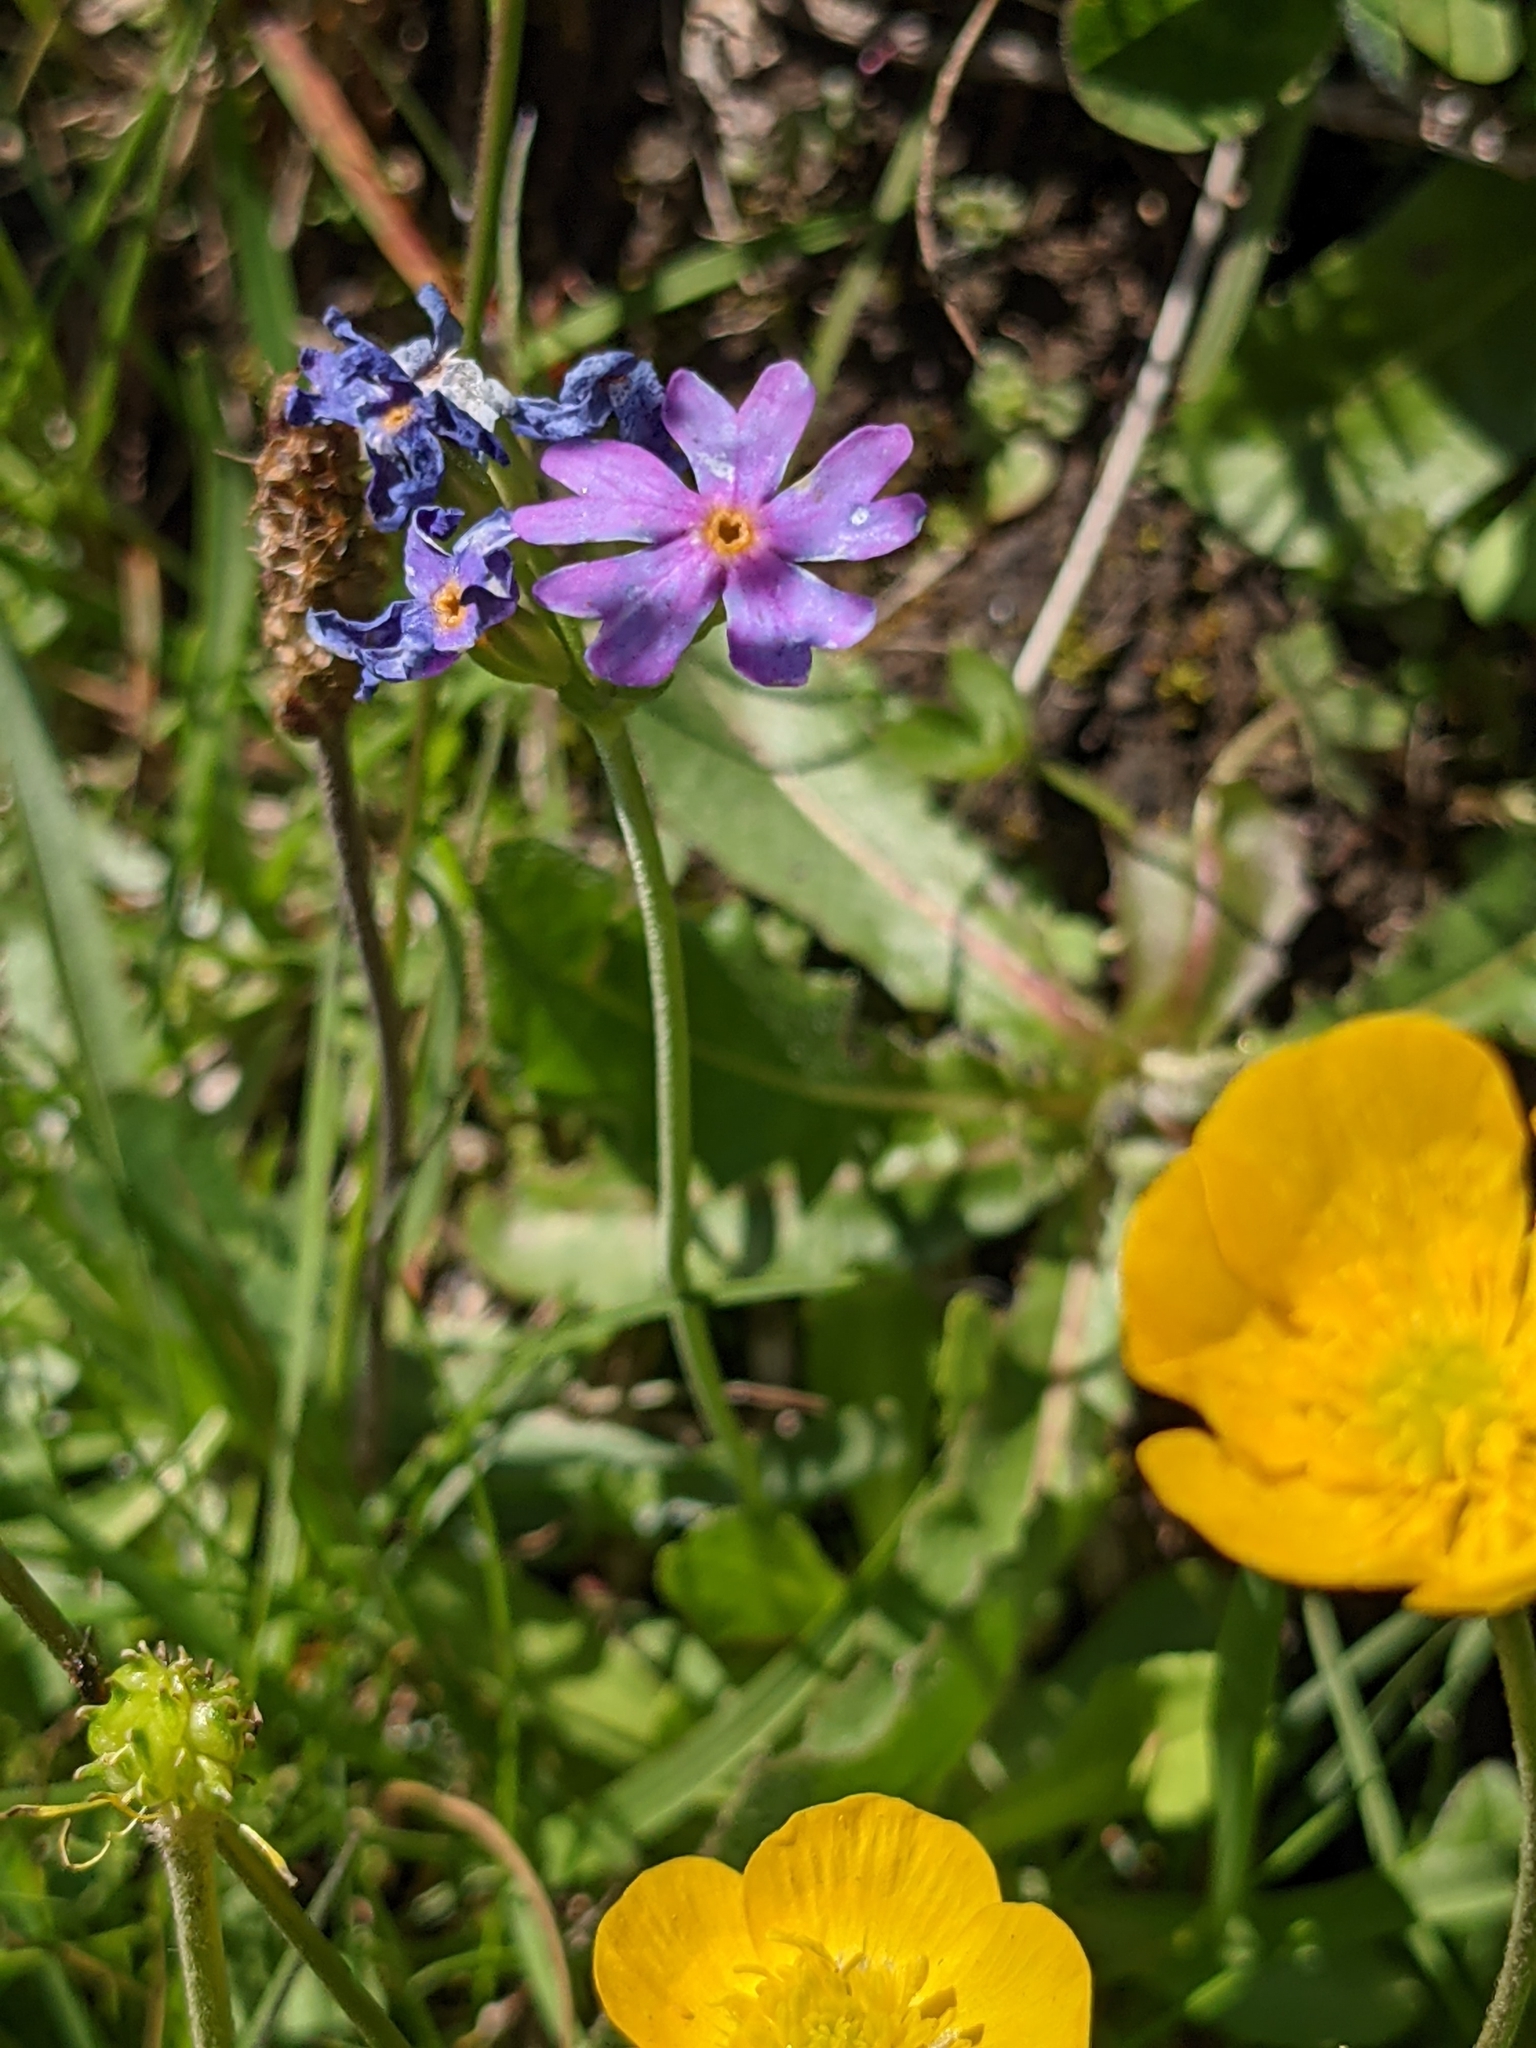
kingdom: Plantae
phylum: Tracheophyta
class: Magnoliopsida
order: Ericales
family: Primulaceae
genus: Primula
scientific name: Primula farinosa
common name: Bird's-eye primrose
